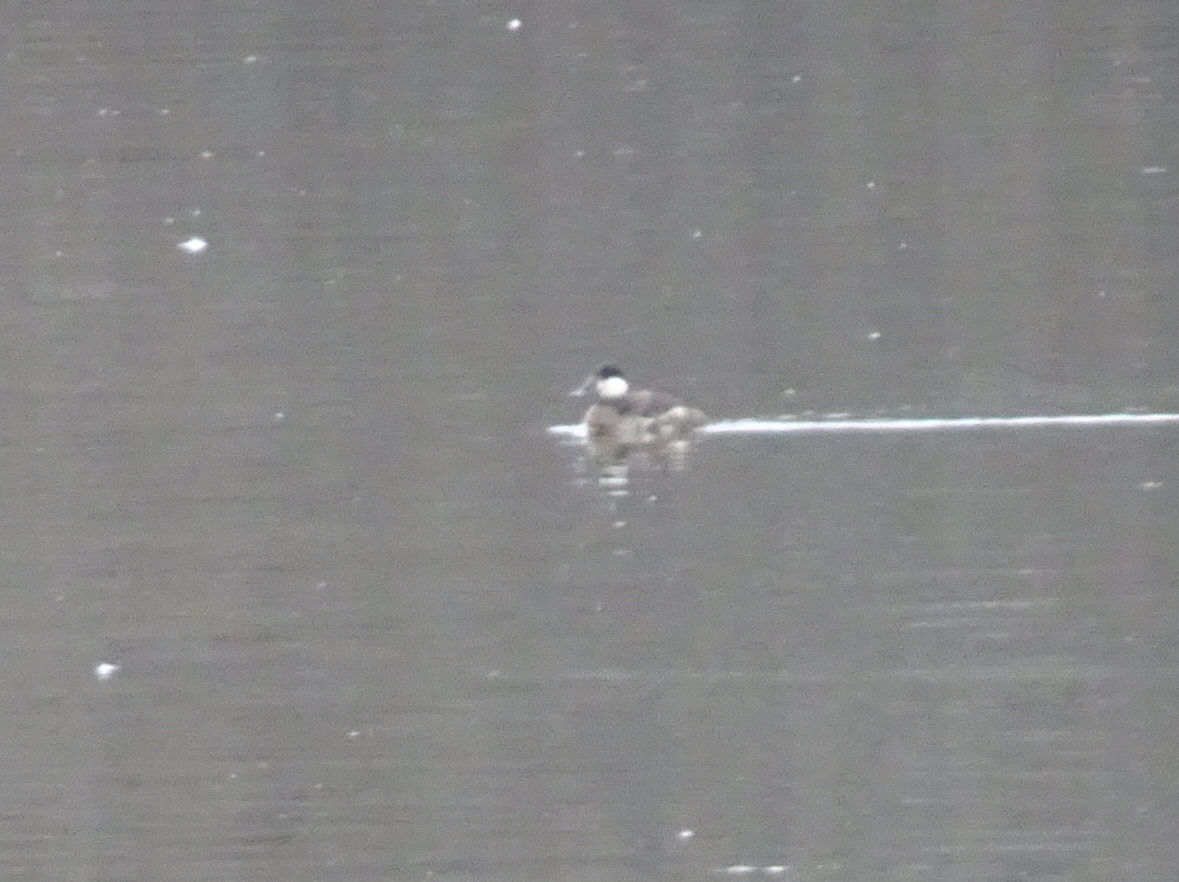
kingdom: Animalia
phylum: Chordata
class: Aves
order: Anseriformes
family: Anatidae
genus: Oxyura
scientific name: Oxyura jamaicensis
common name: Ruddy duck
